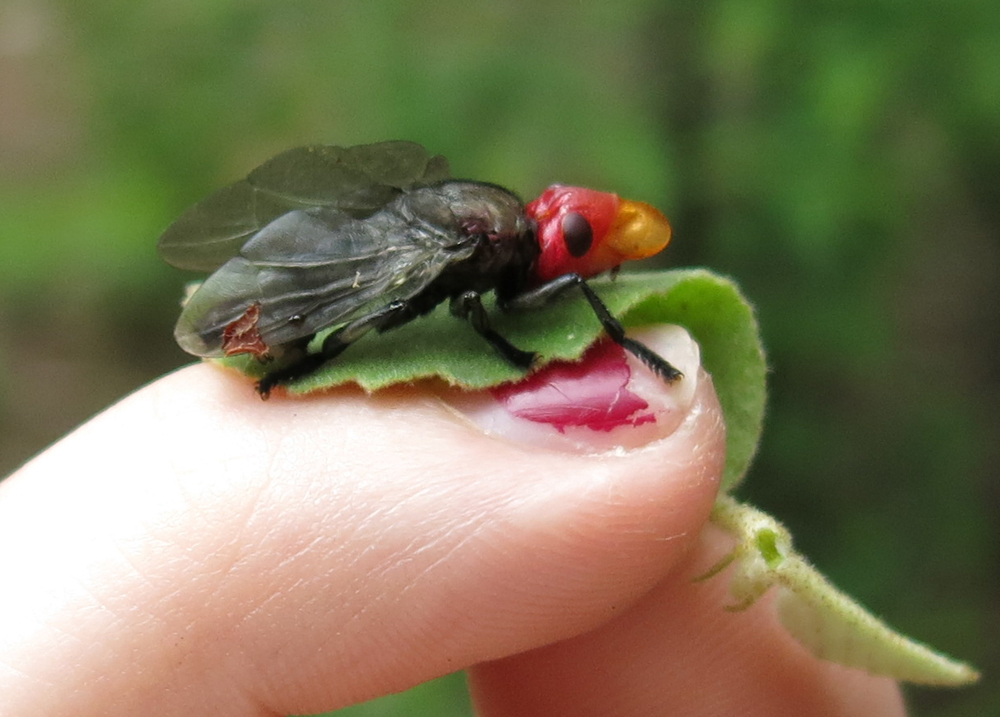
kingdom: Animalia
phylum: Arthropoda
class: Insecta
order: Diptera
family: Platystomatidae
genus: Bromophila
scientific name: Bromophila caffra
